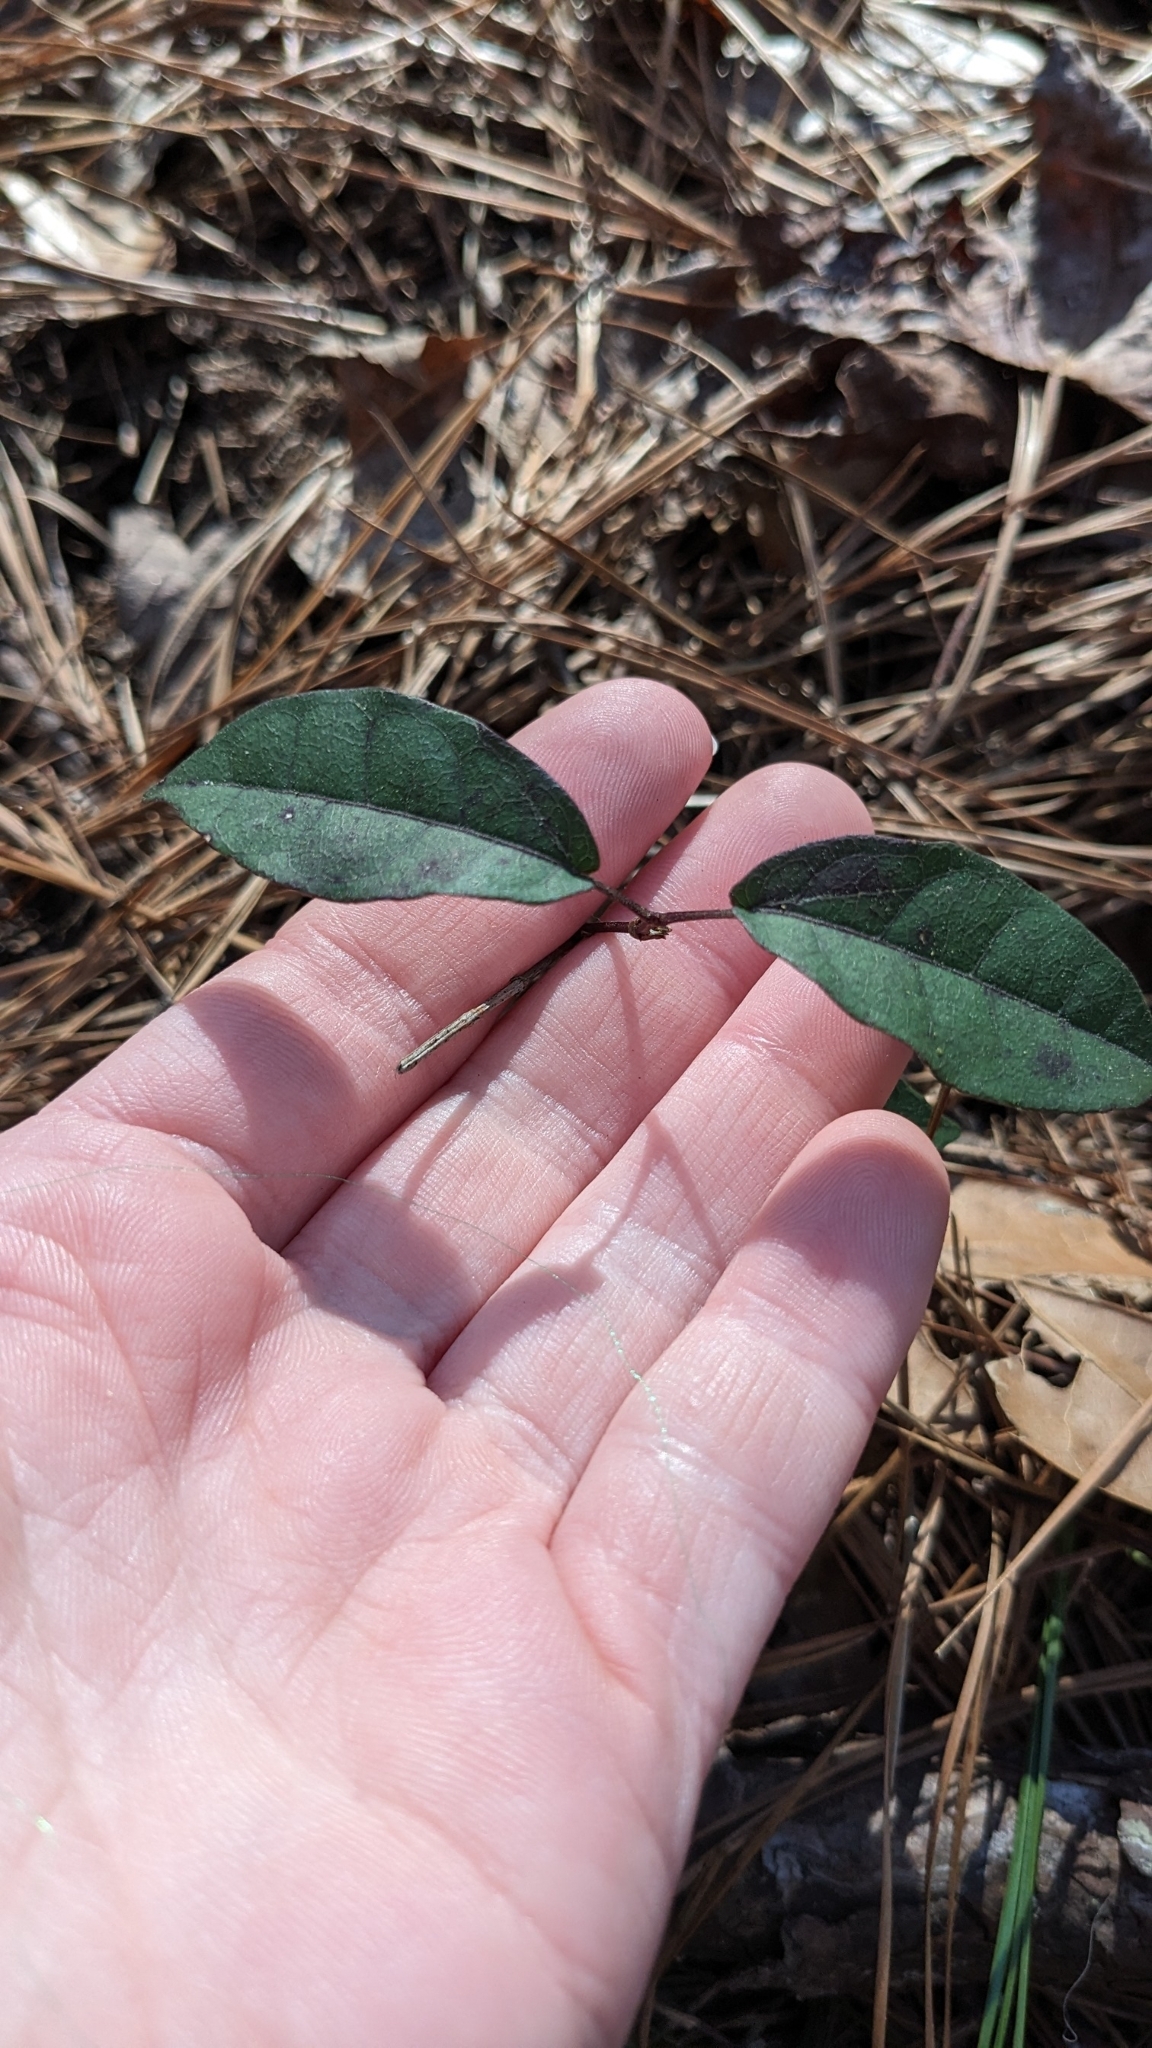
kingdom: Plantae
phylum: Tracheophyta
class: Magnoliopsida
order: Lamiales
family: Bignoniaceae
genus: Bignonia
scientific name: Bignonia capreolata
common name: Crossvine
